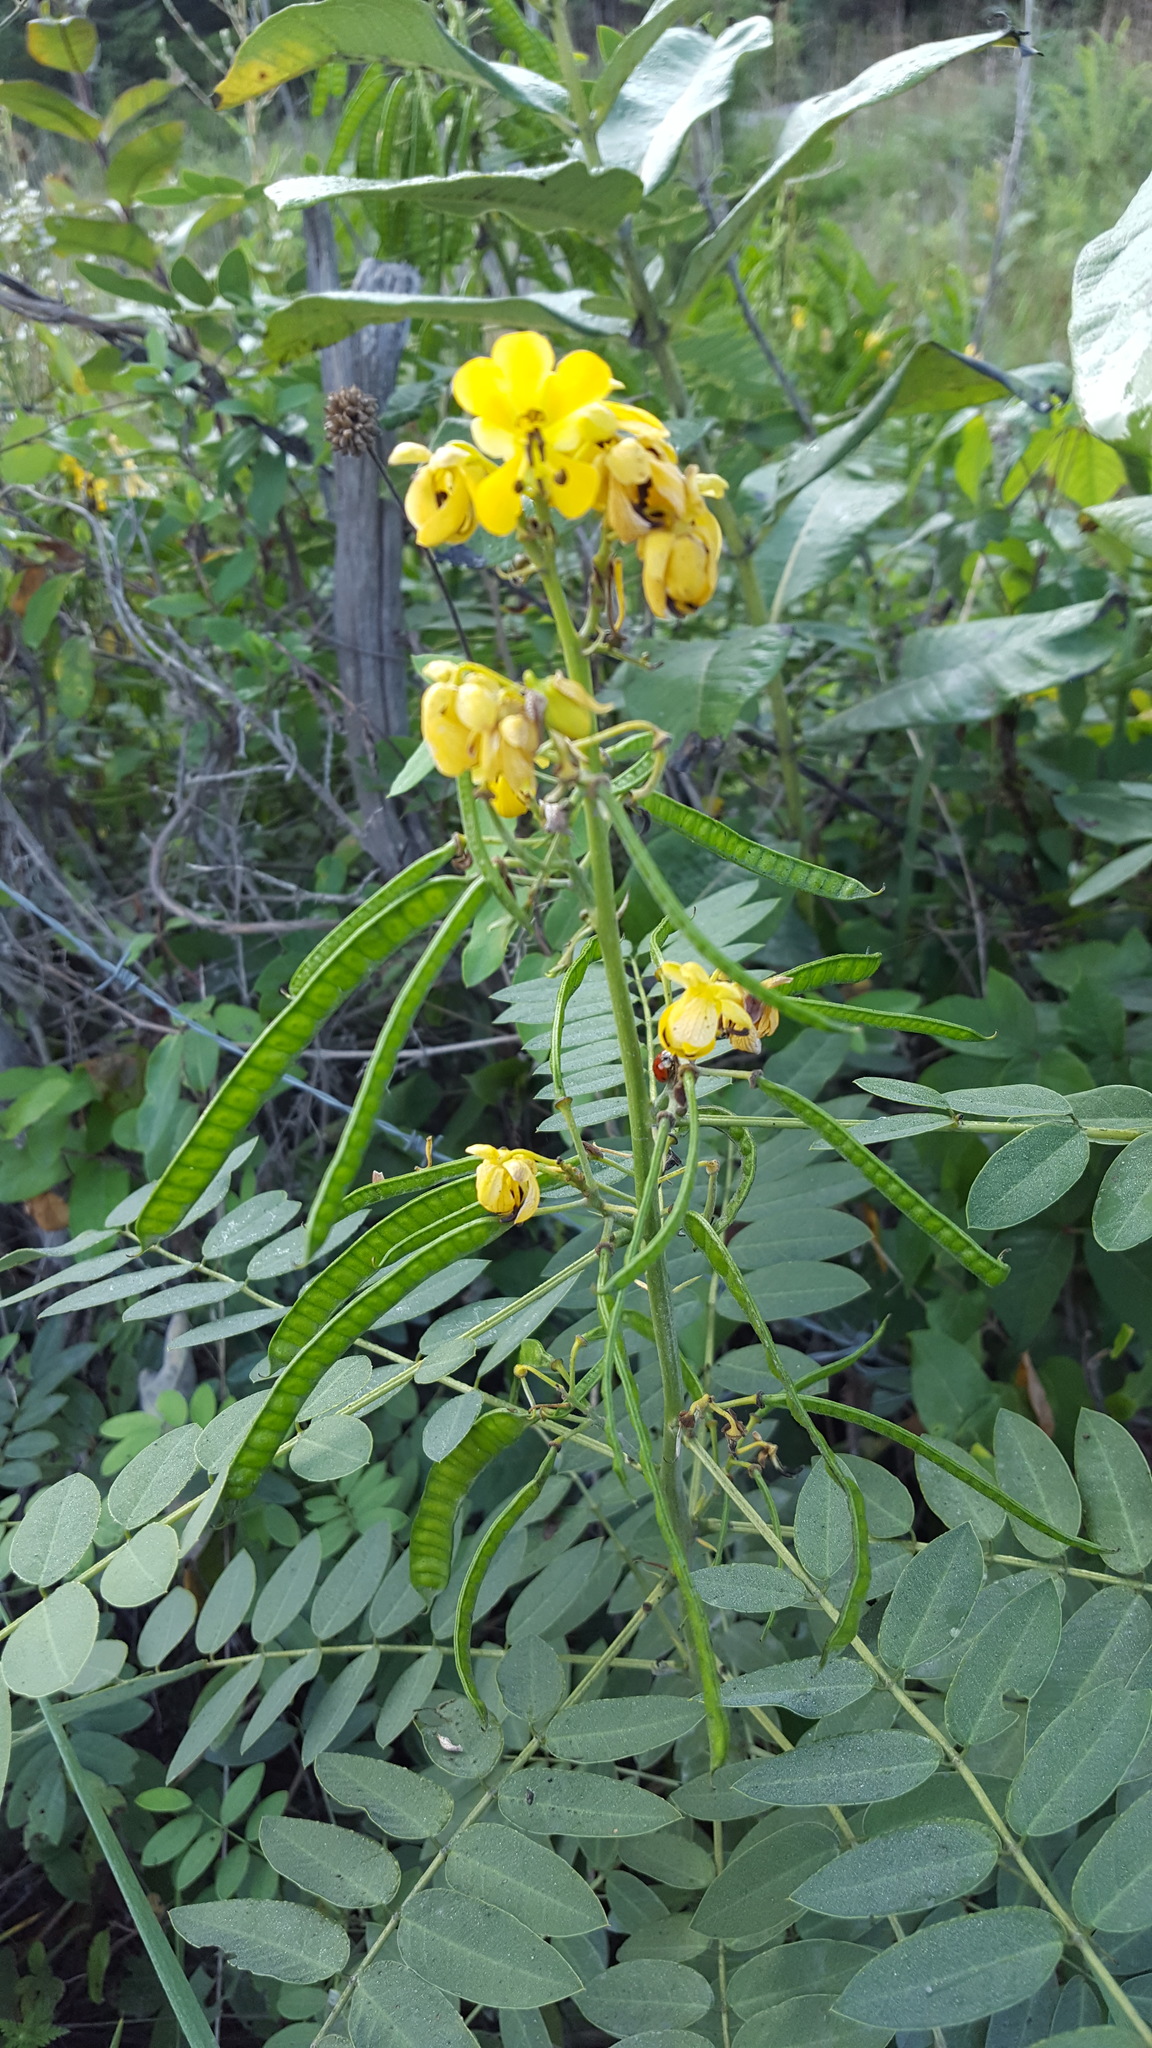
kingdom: Plantae
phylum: Tracheophyta
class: Magnoliopsida
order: Fabales
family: Fabaceae
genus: Senna
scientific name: Senna marilandica
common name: American senna
